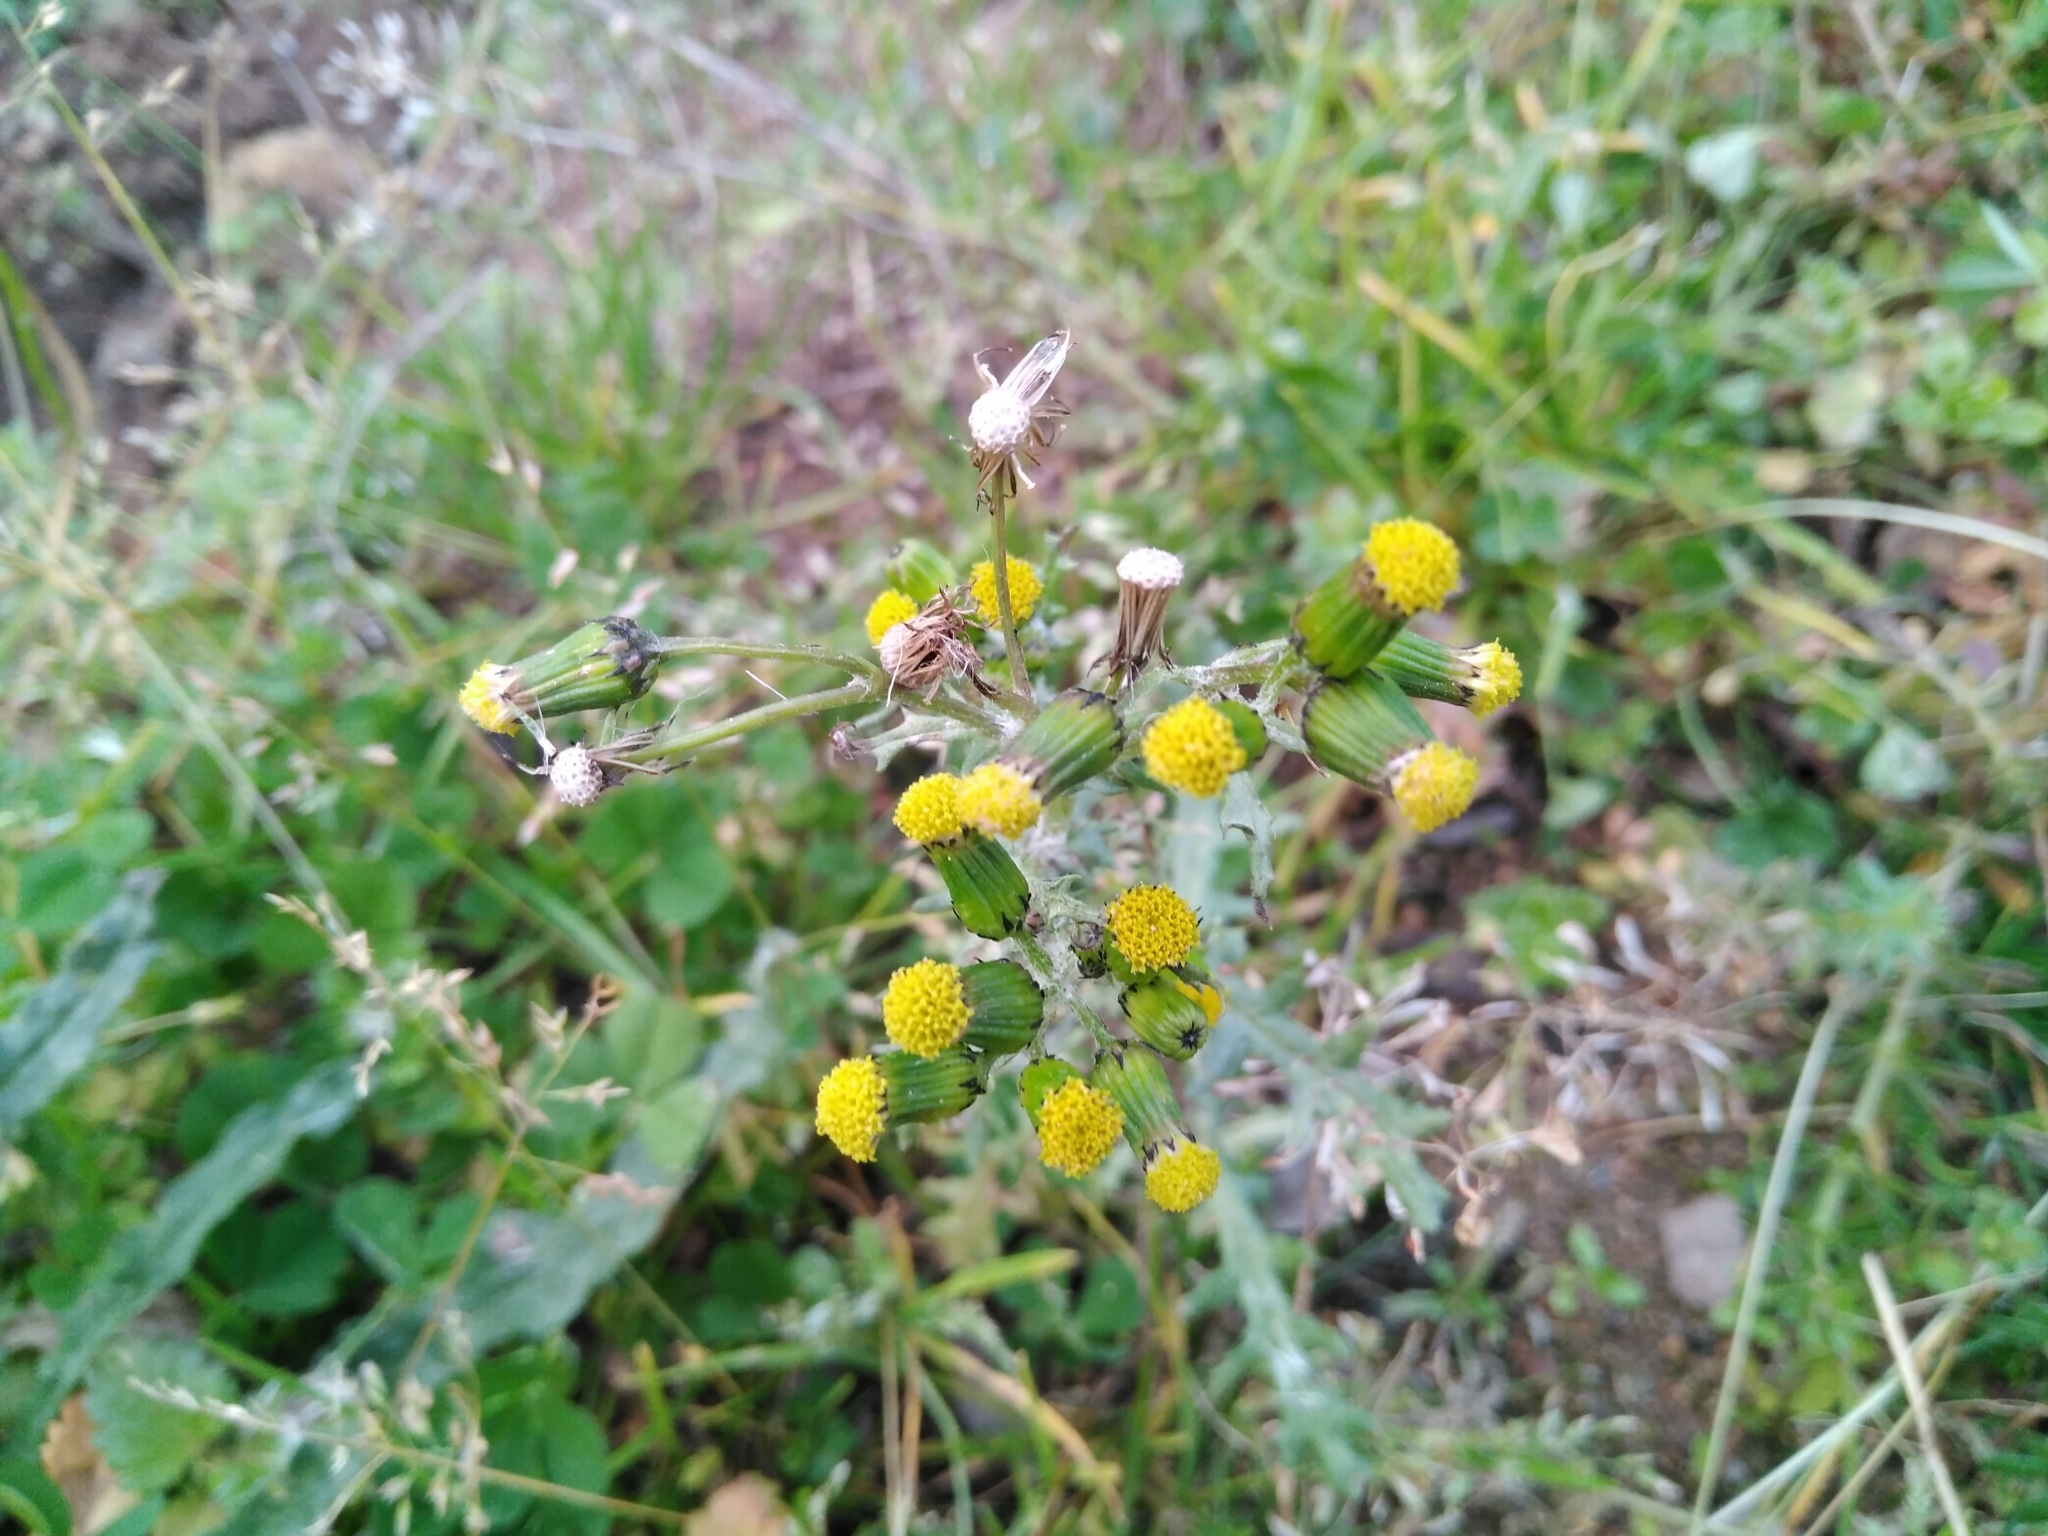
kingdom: Plantae
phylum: Tracheophyta
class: Magnoliopsida
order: Asterales
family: Asteraceae
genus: Senecio
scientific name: Senecio vulgaris
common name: Old-man-in-the-spring
